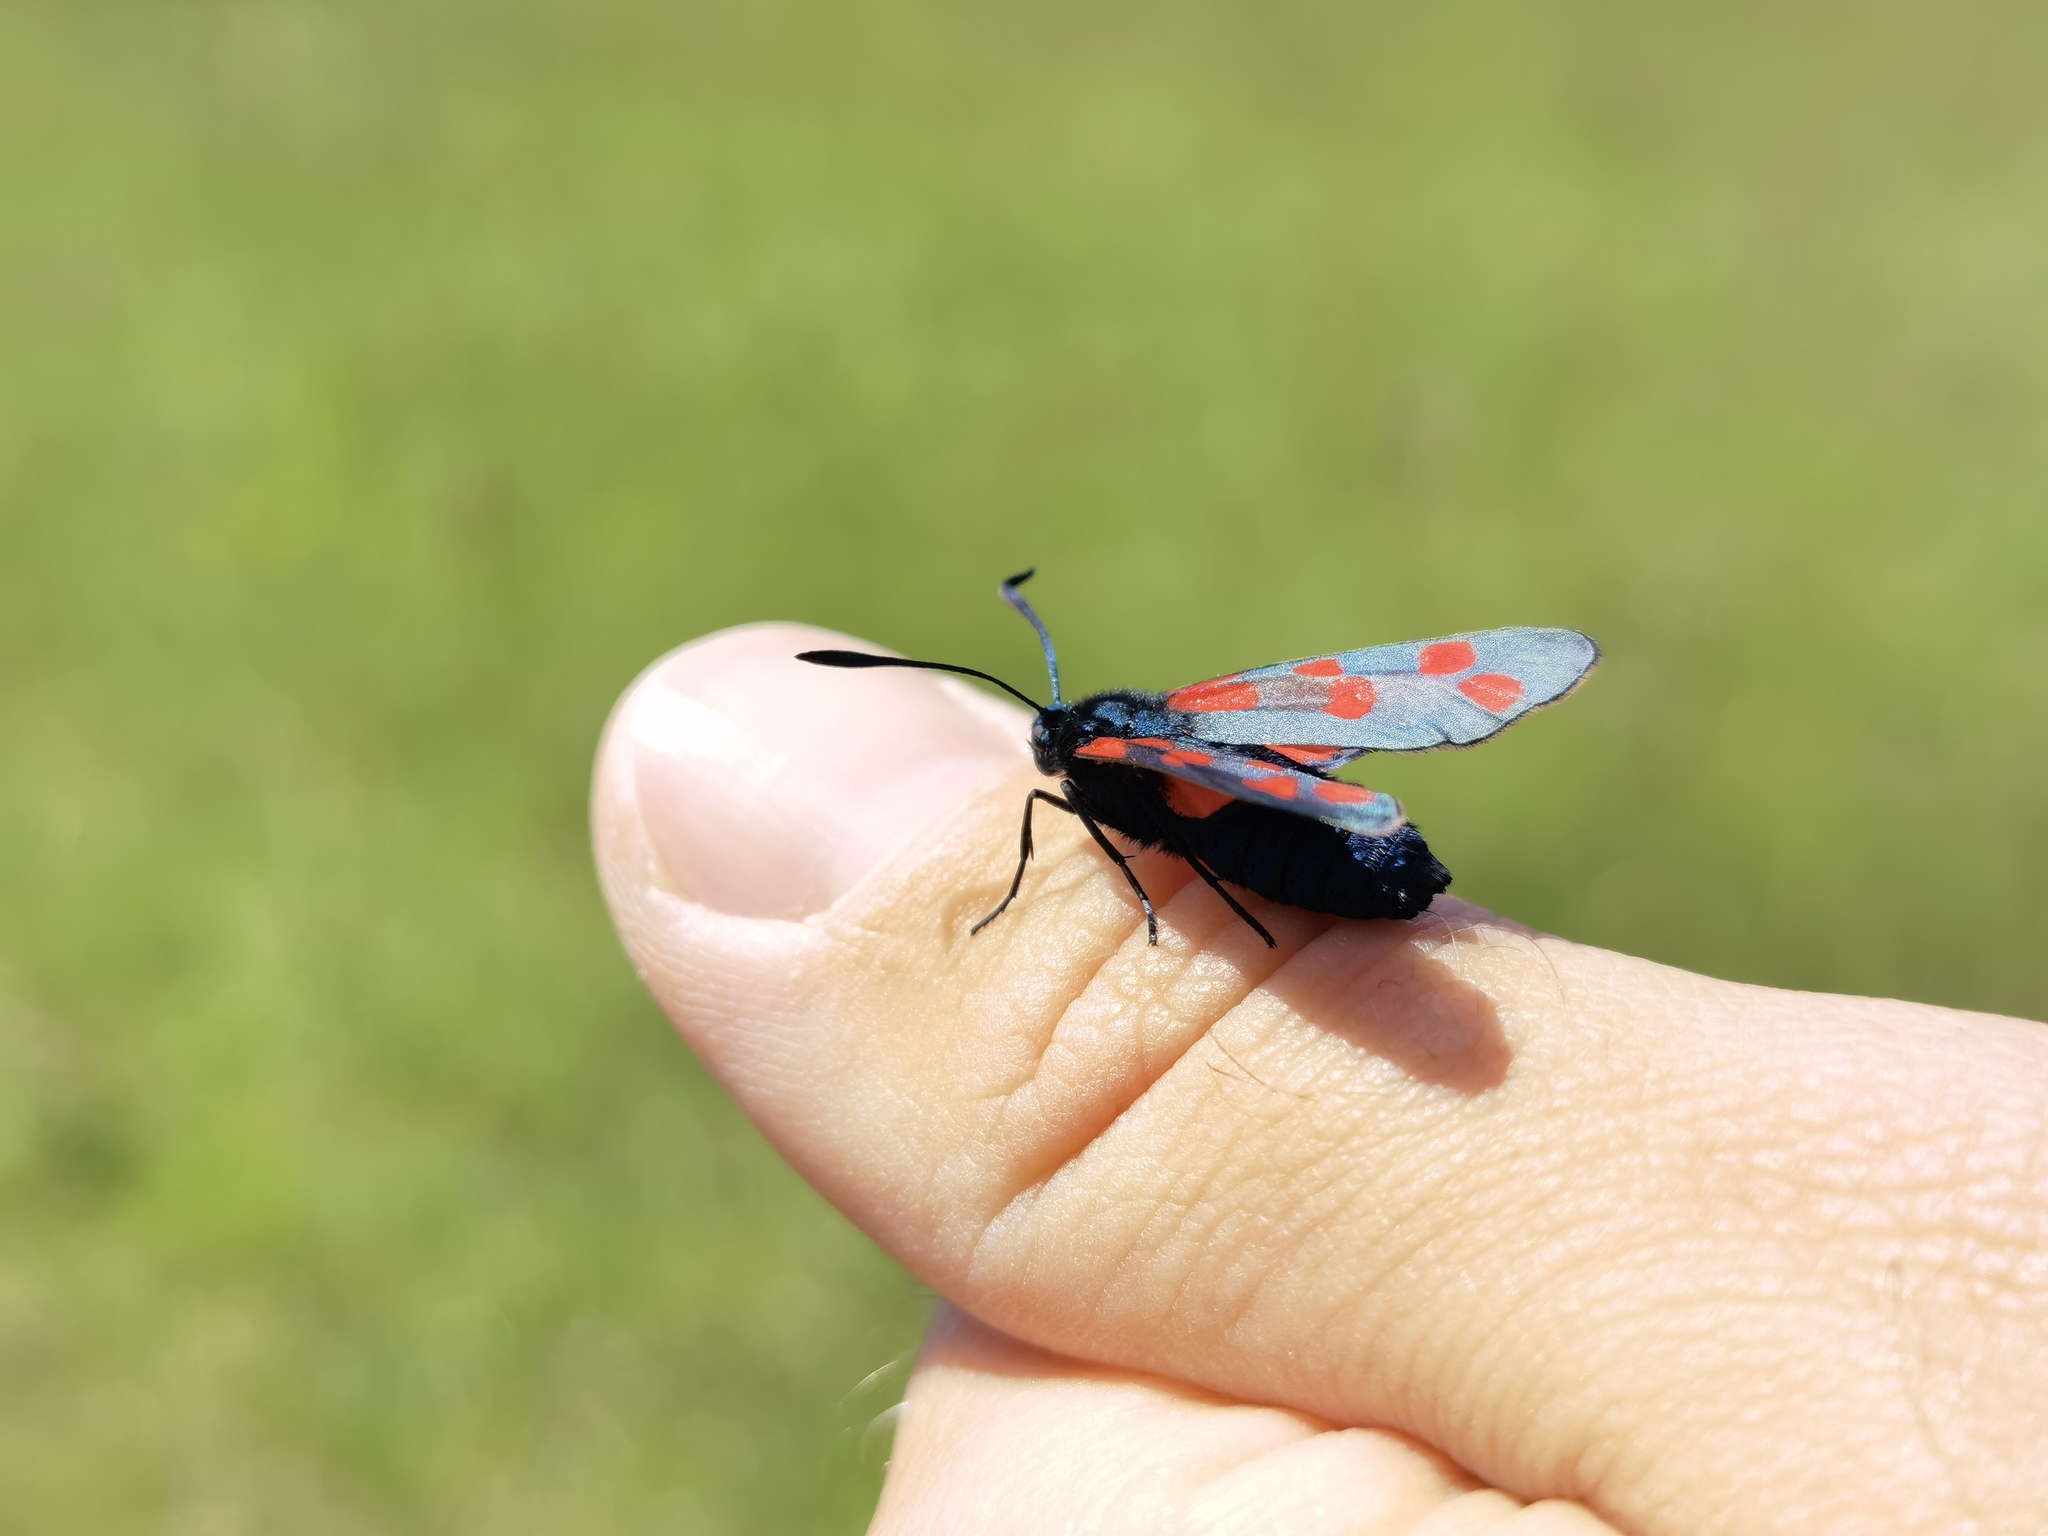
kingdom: Animalia
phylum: Arthropoda
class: Insecta
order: Lepidoptera
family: Zygaenidae
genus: Zygaena
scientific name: Zygaena filipendulae
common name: Six-spot burnet
